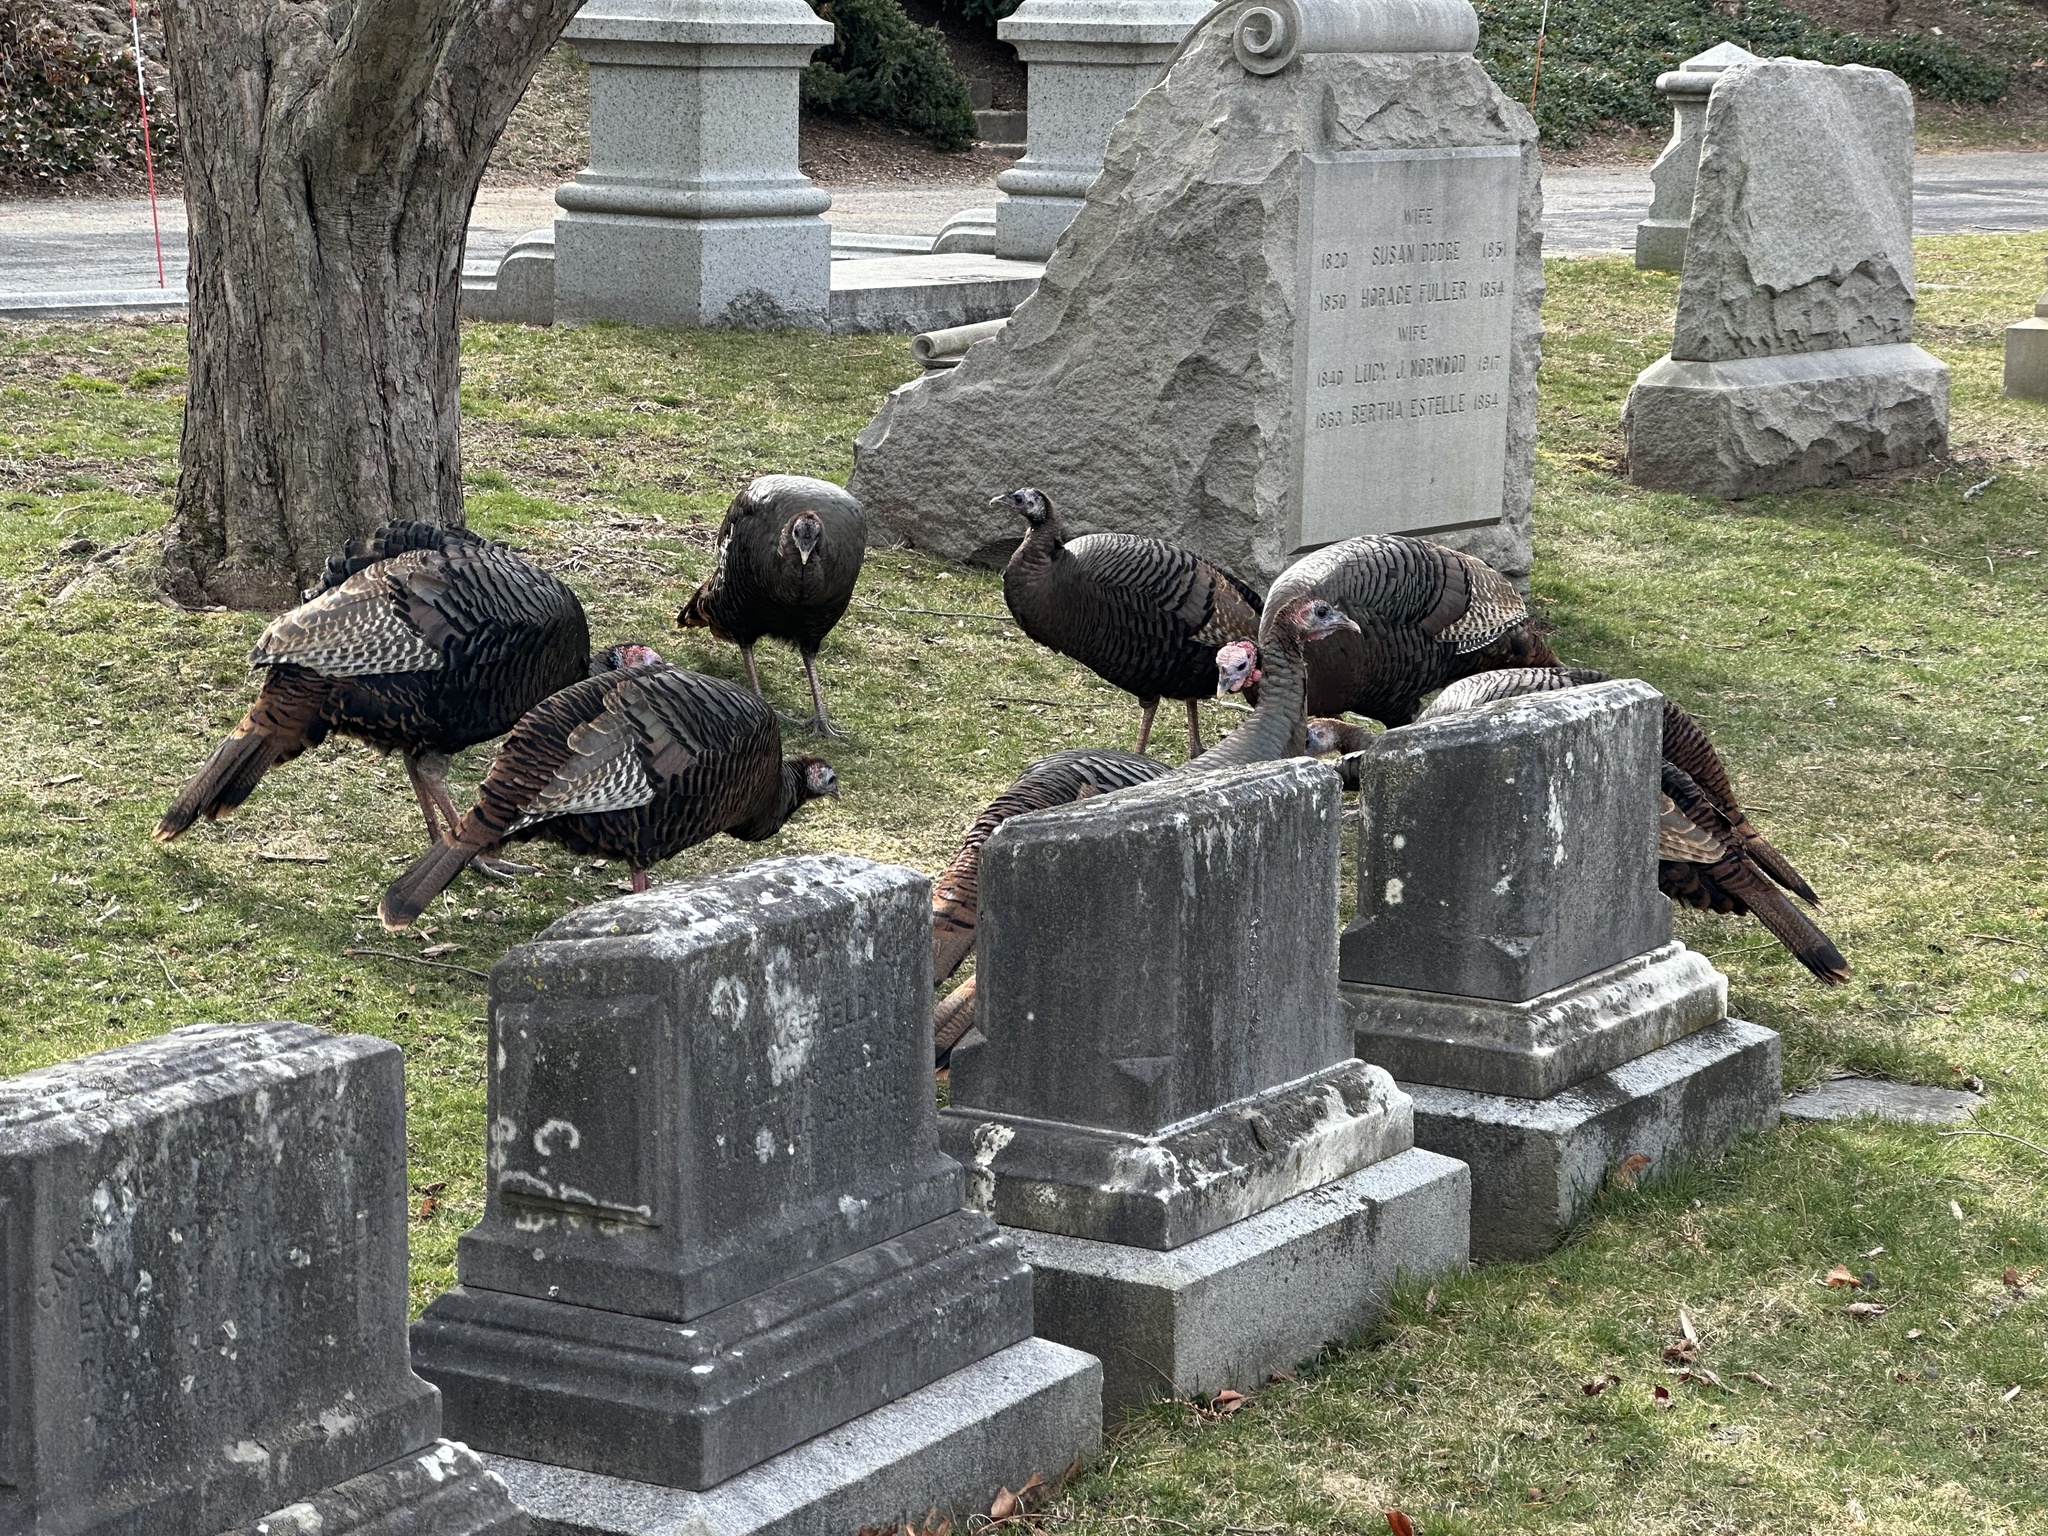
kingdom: Animalia
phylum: Chordata
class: Aves
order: Galliformes
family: Phasianidae
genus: Meleagris
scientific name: Meleagris gallopavo
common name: Wild turkey
